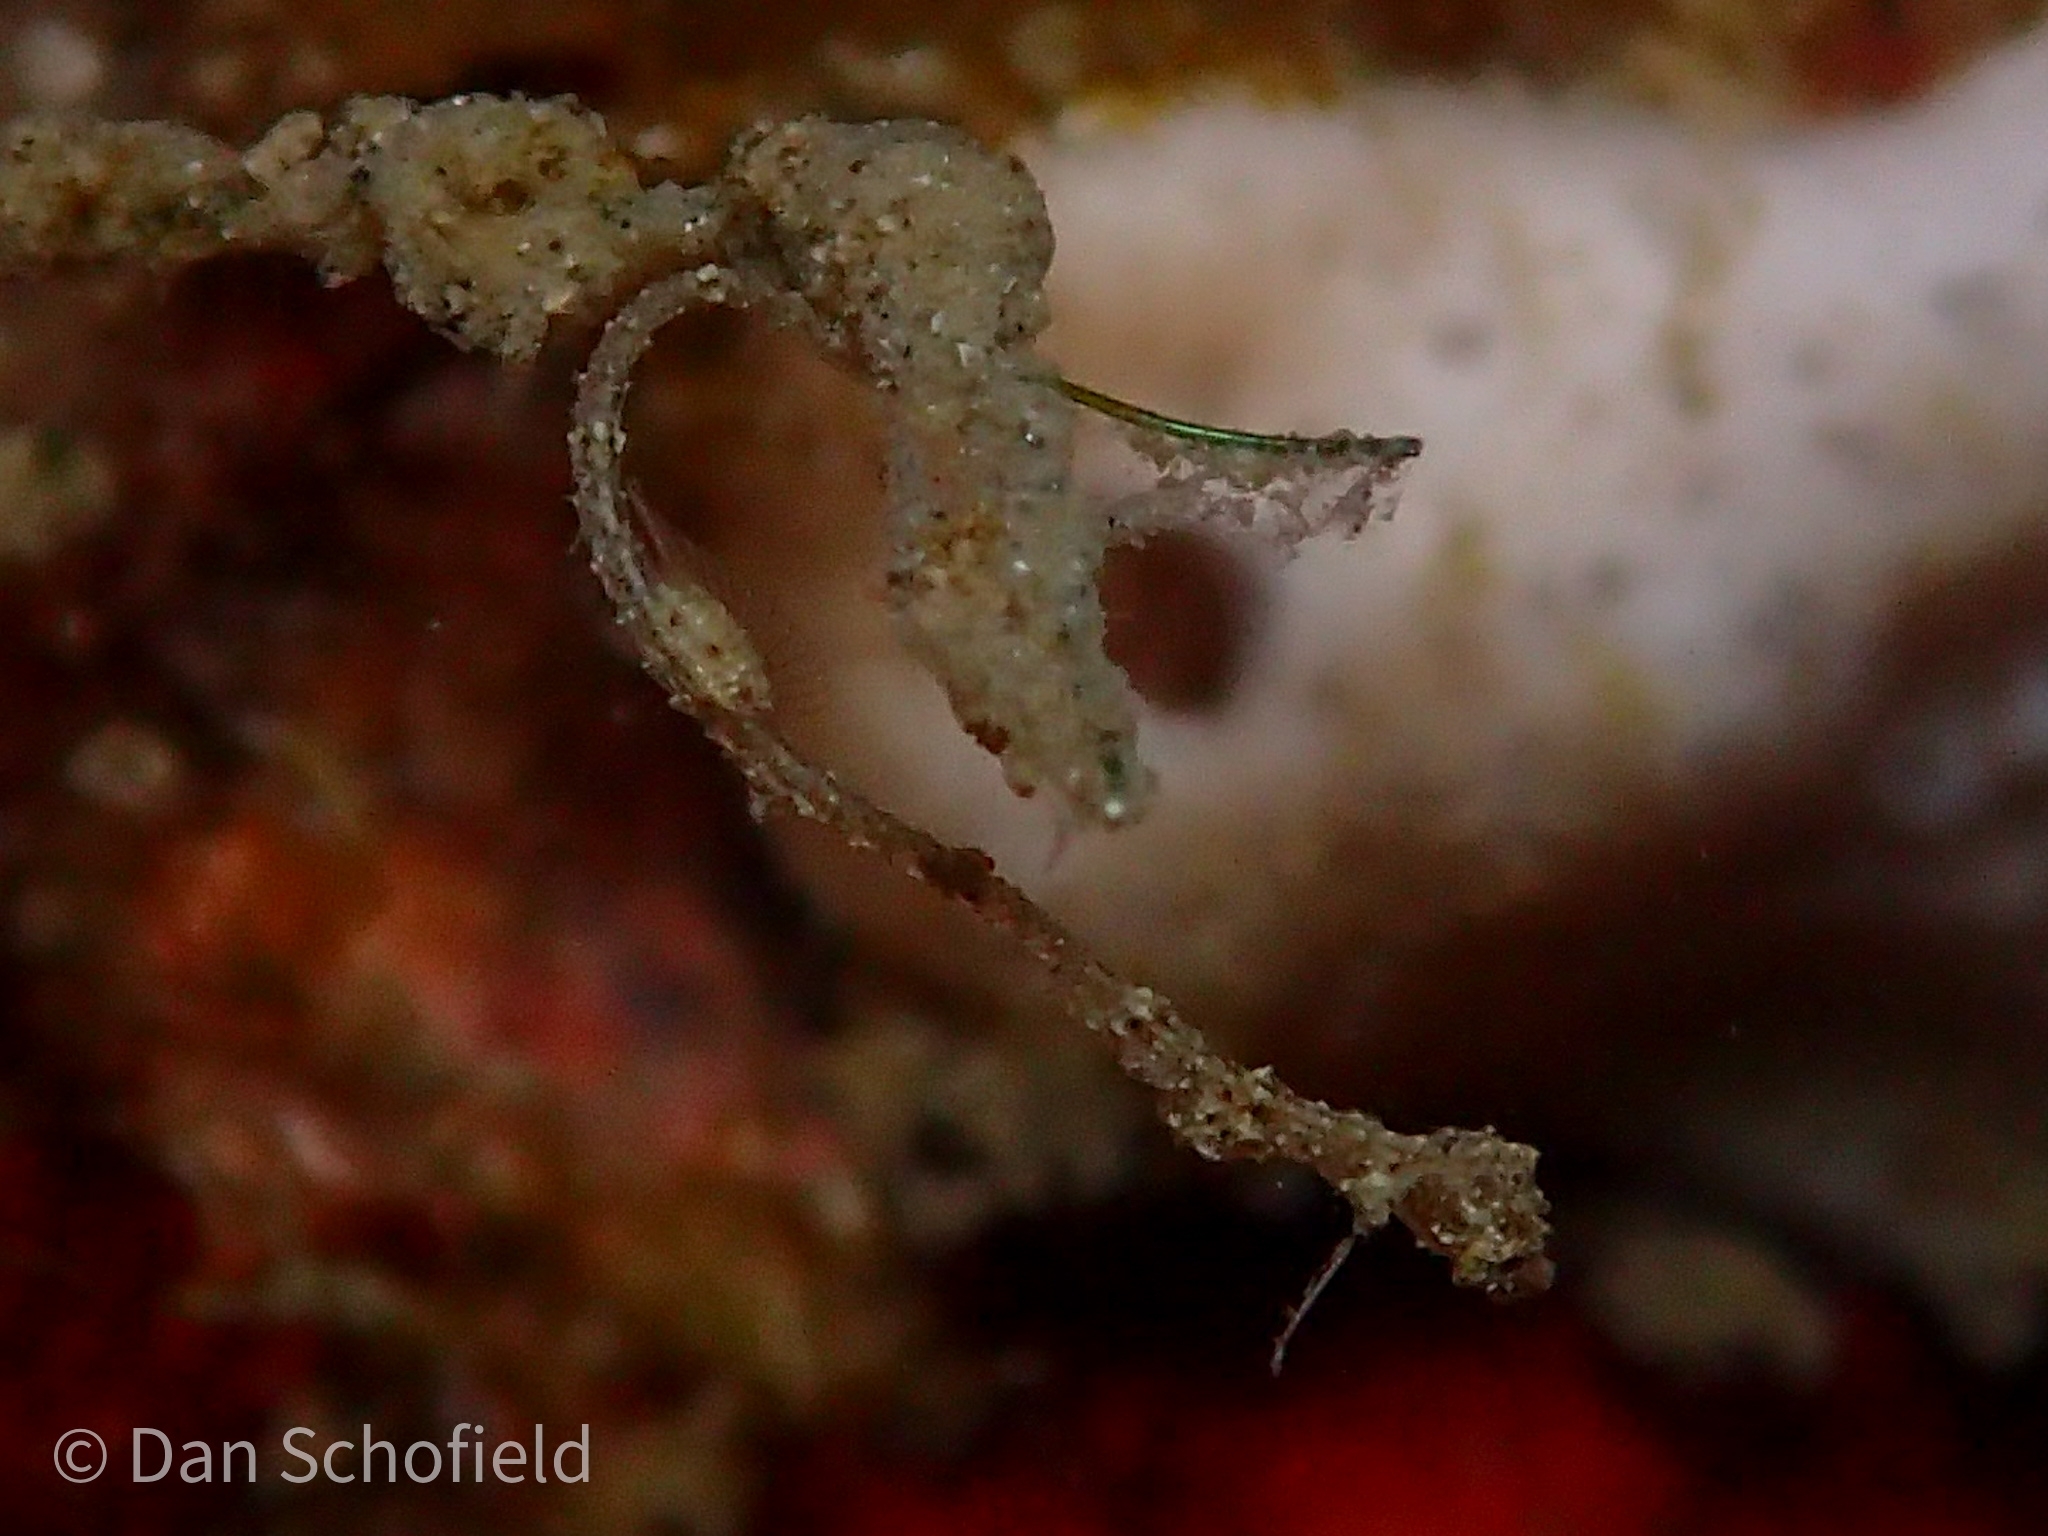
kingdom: Animalia
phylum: Chordata
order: Syngnathiformes
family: Syngnathidae
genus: Kyonemichthys
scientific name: Kyonemichthys rumengani
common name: Thread pipefish
